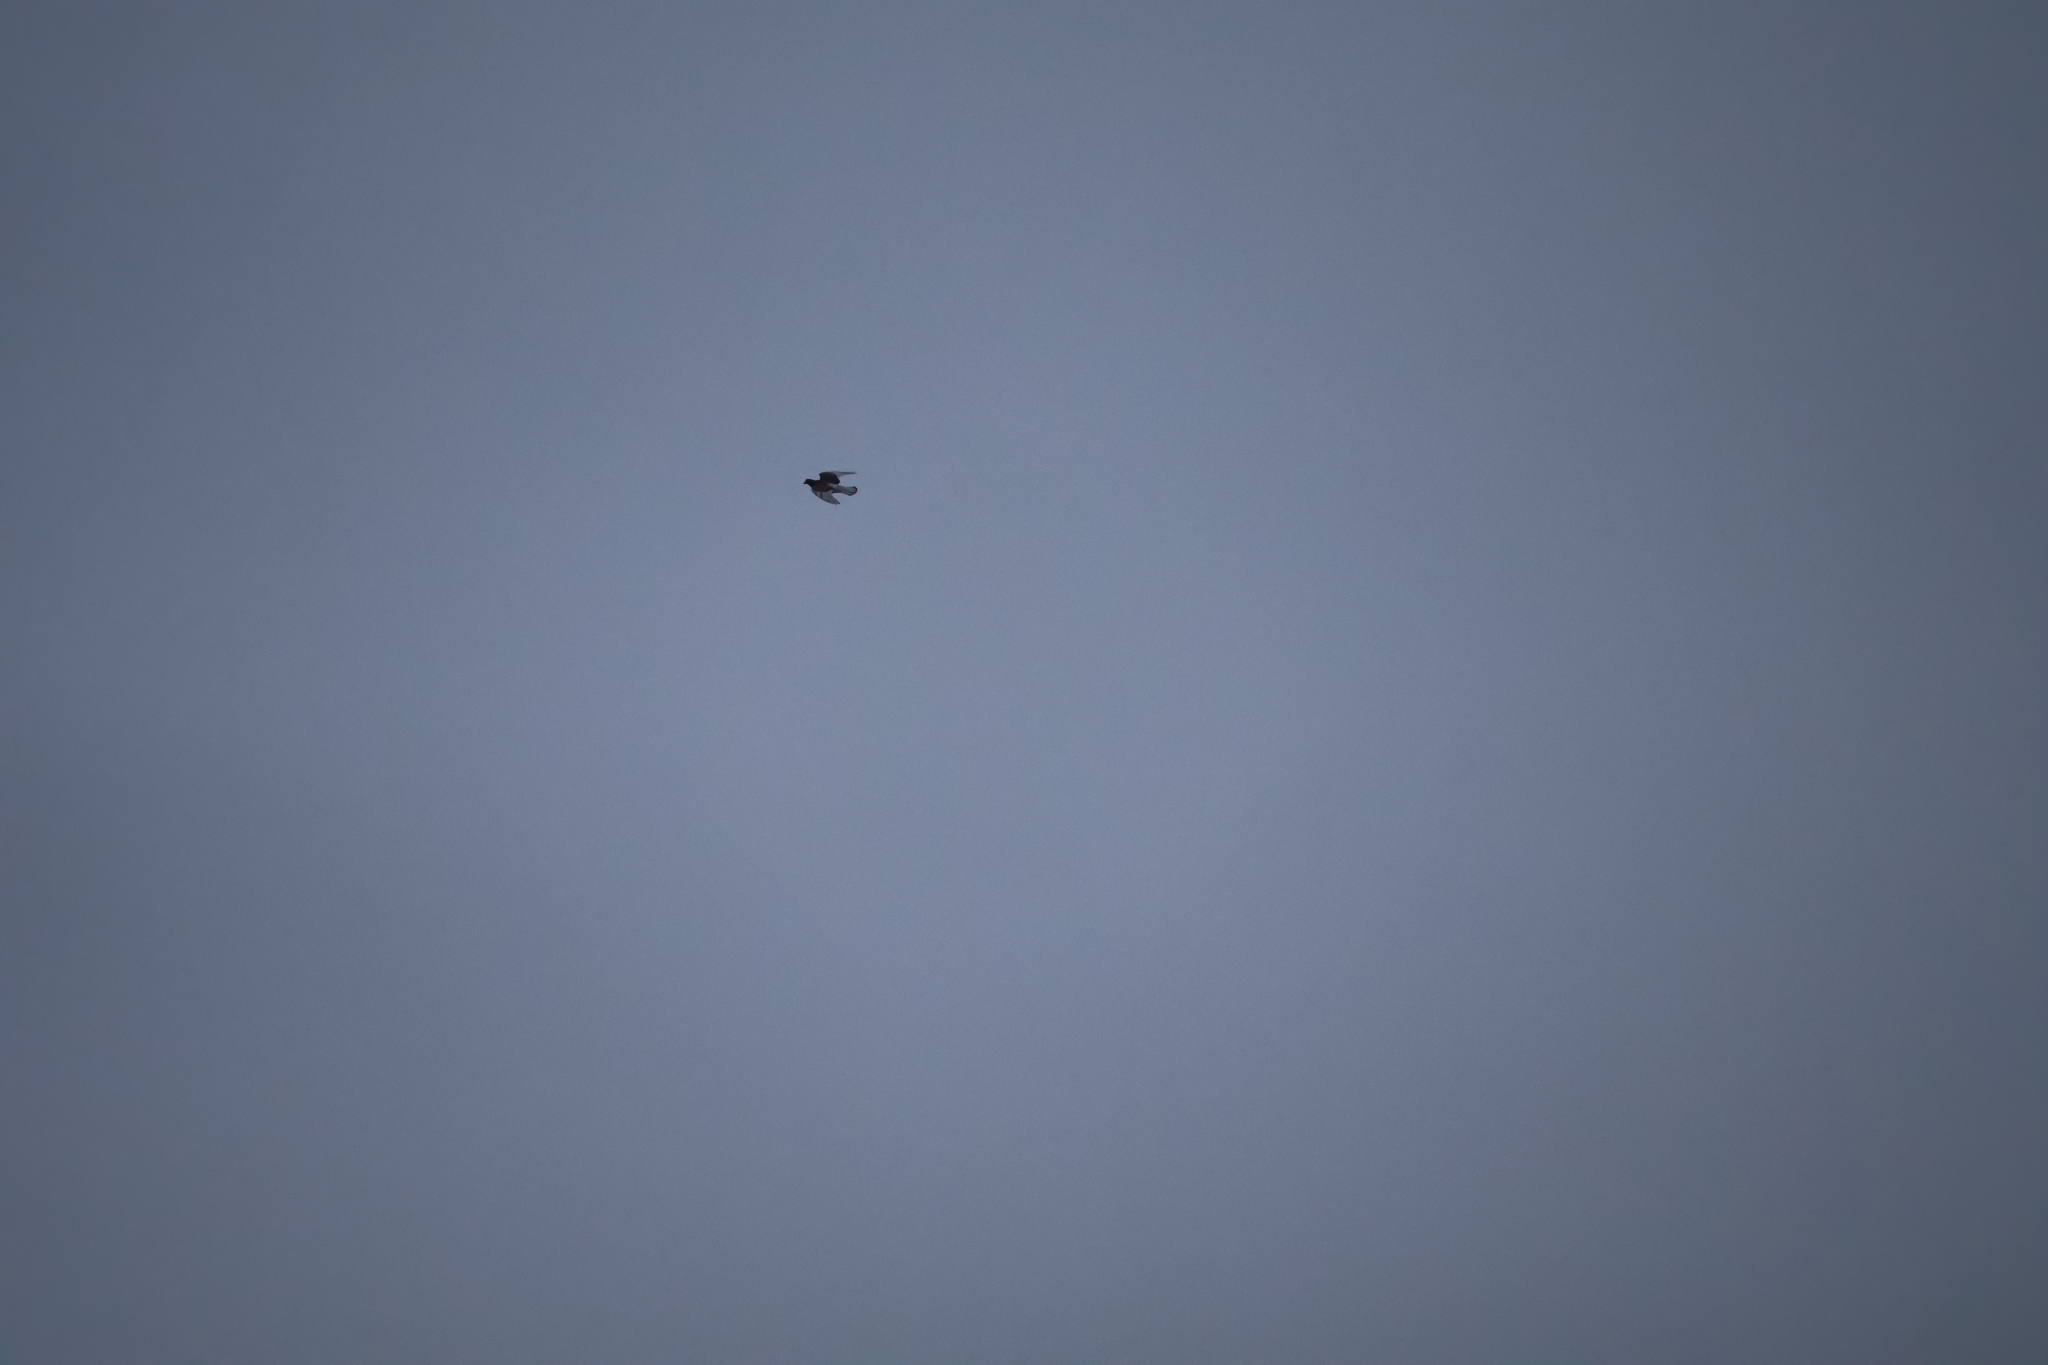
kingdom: Animalia
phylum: Chordata
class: Aves
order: Columbiformes
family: Columbidae
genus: Columba
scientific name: Columba livia
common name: Rock pigeon
